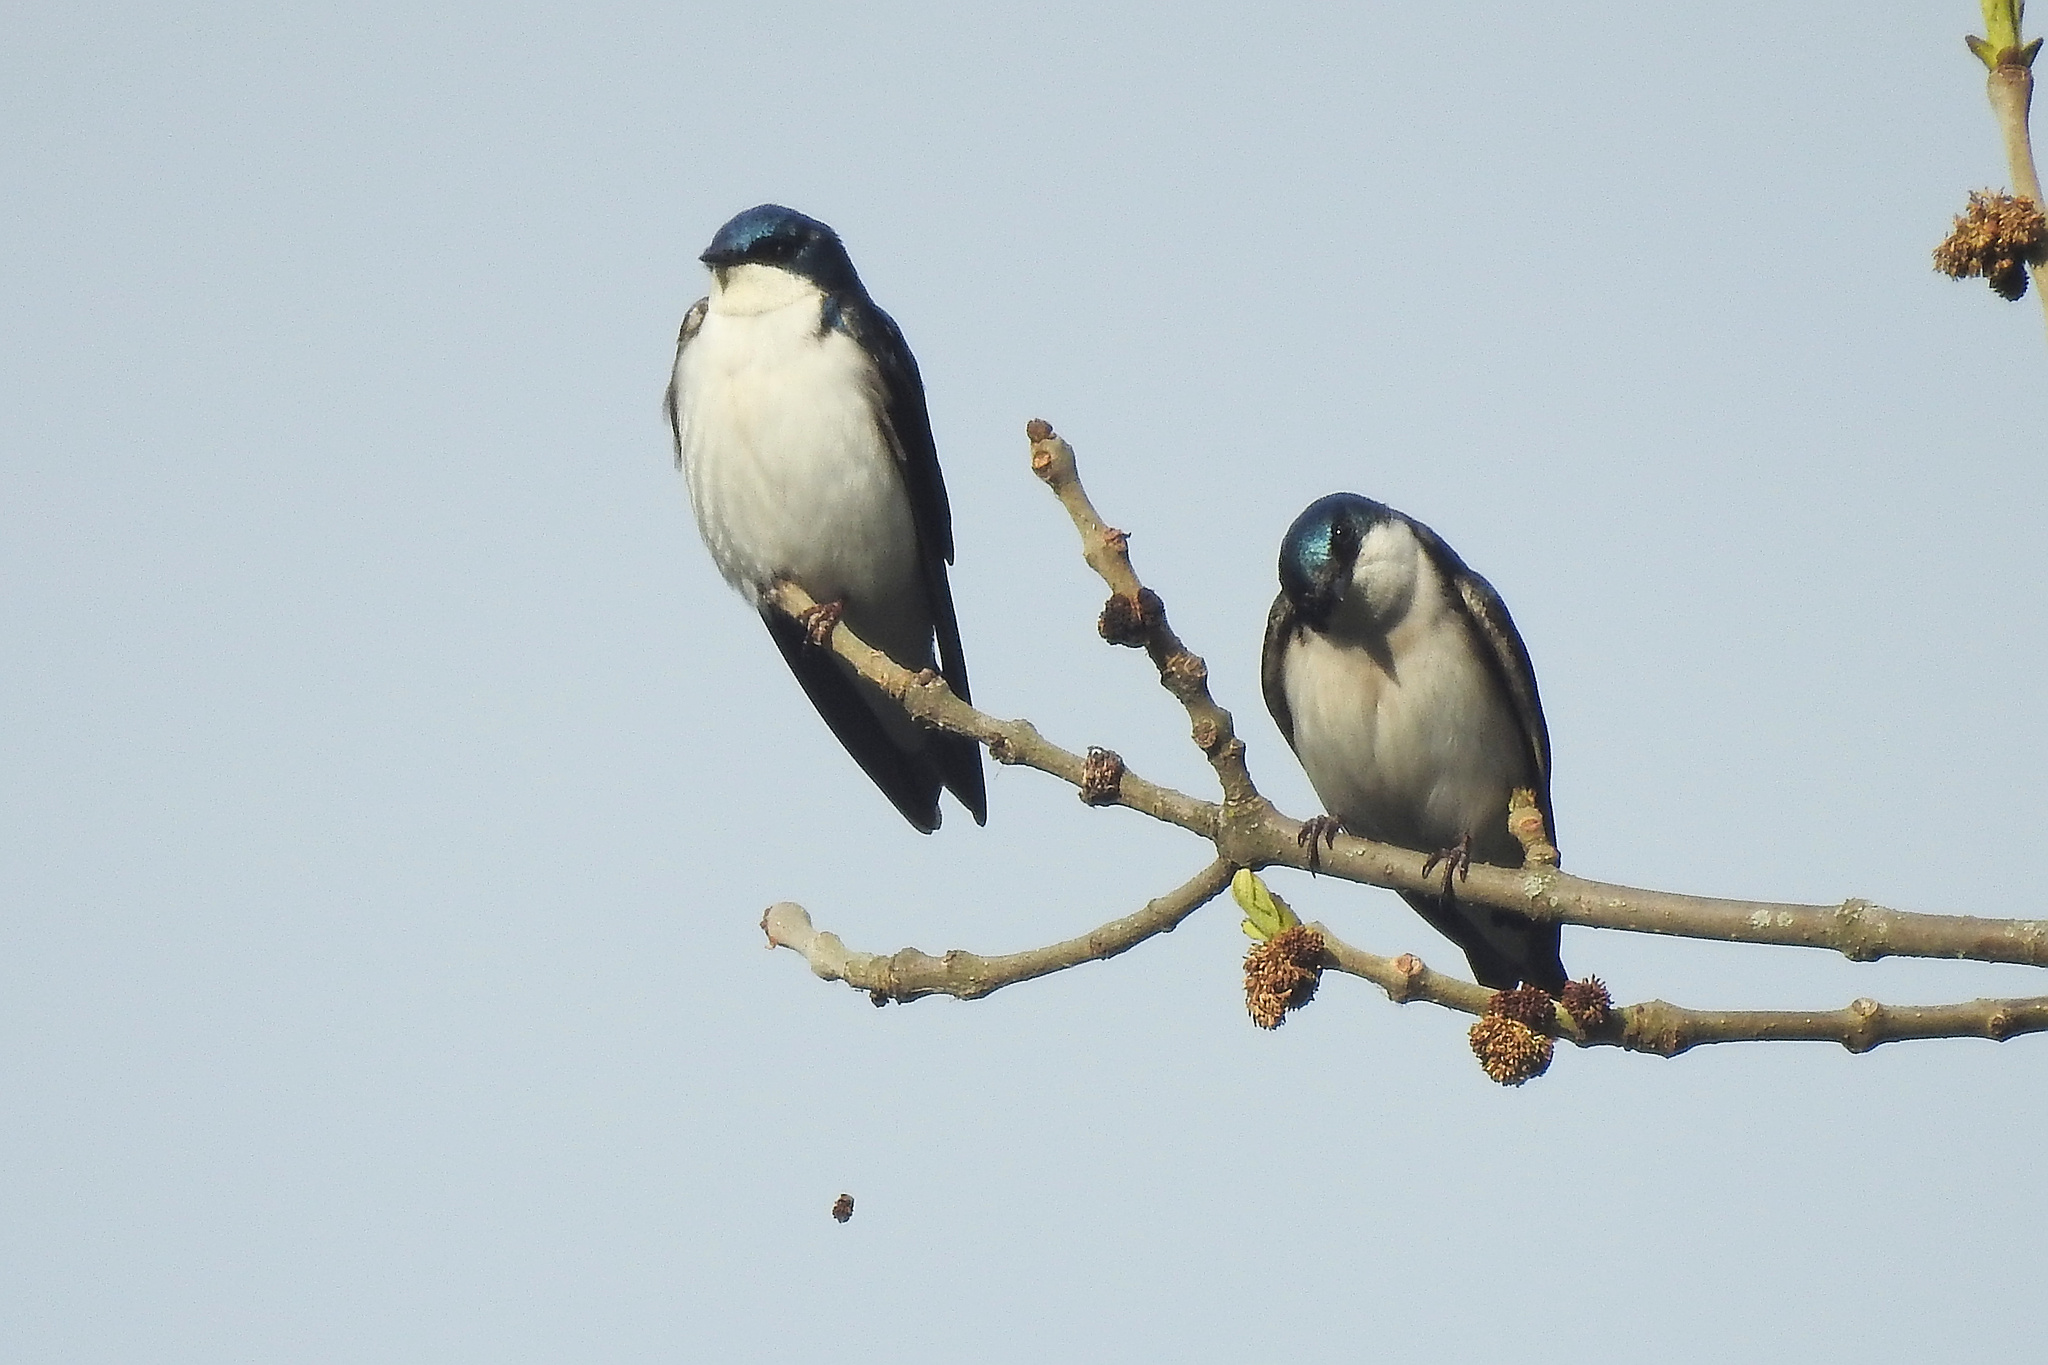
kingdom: Animalia
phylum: Chordata
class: Aves
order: Passeriformes
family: Hirundinidae
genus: Tachycineta
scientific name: Tachycineta bicolor
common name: Tree swallow
